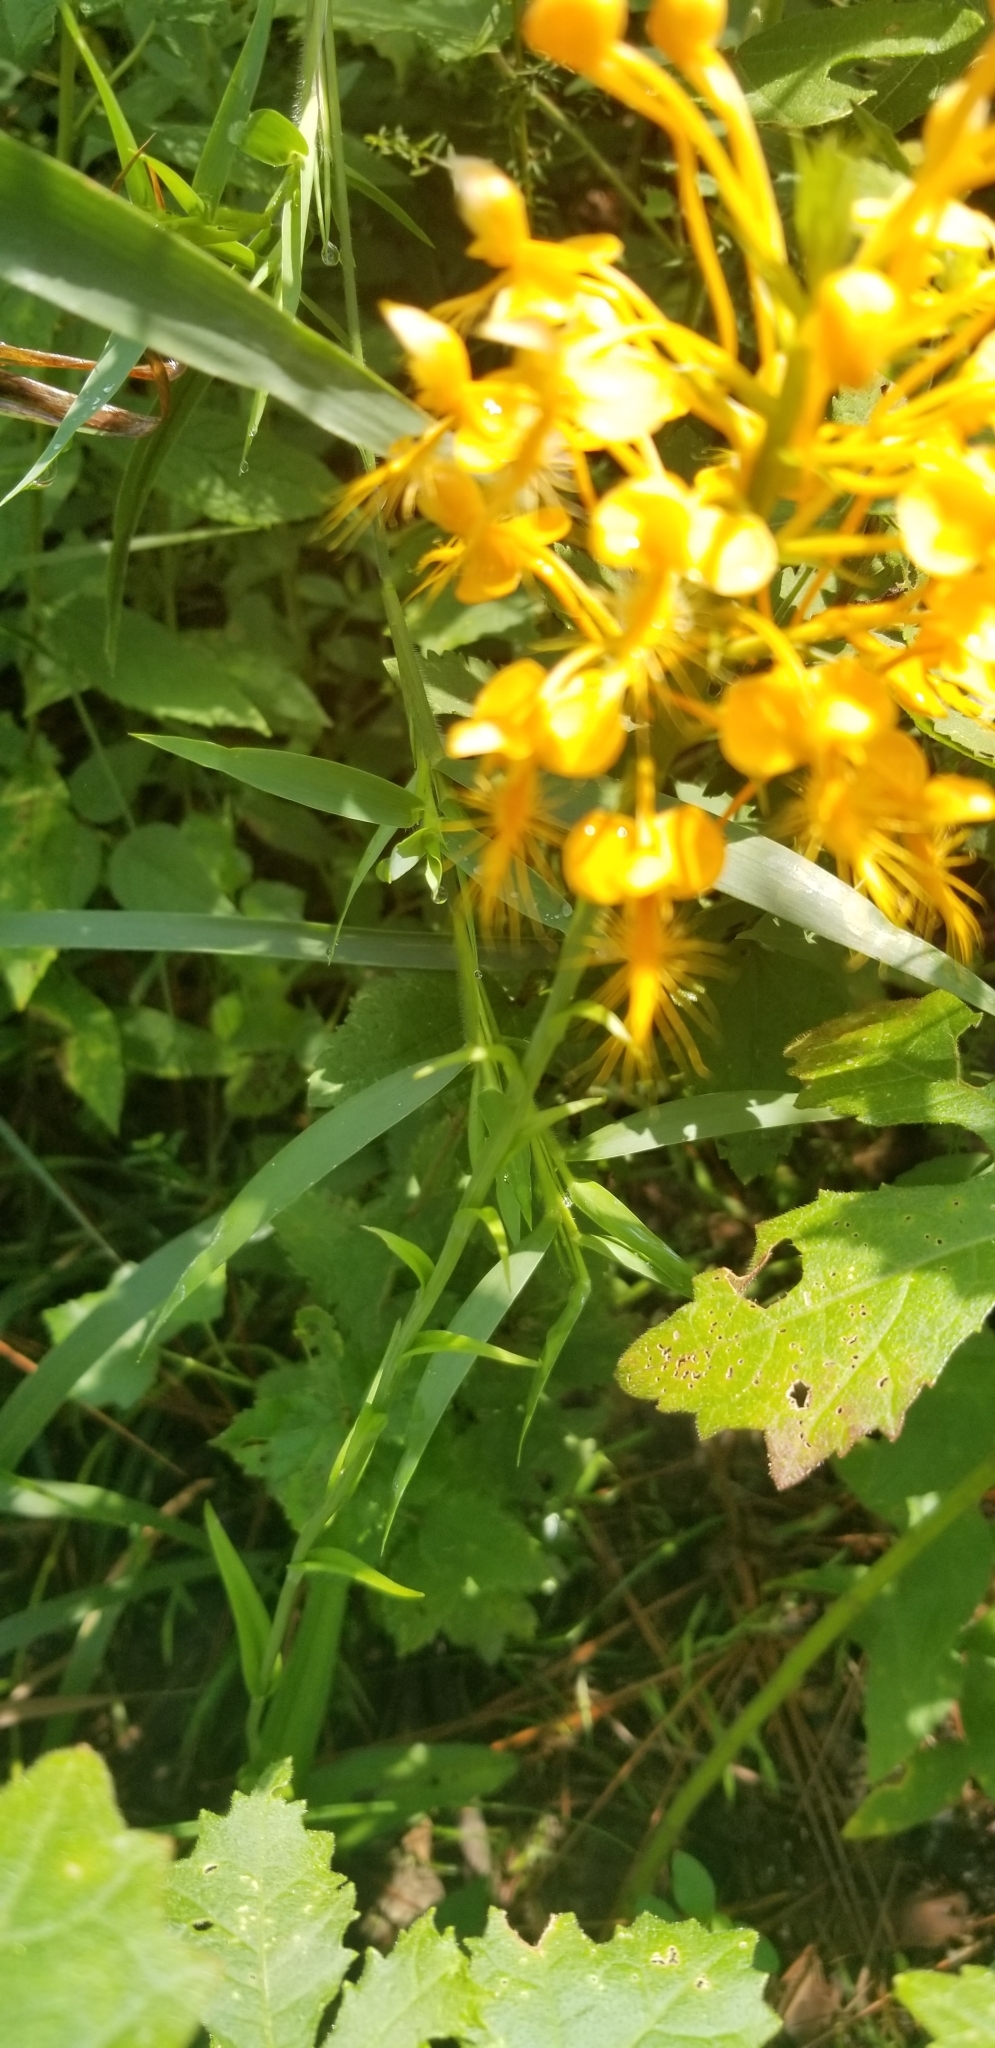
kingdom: Plantae
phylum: Tracheophyta
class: Liliopsida
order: Asparagales
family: Orchidaceae
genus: Platanthera
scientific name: Platanthera ciliaris
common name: Yellow fringed orchid
